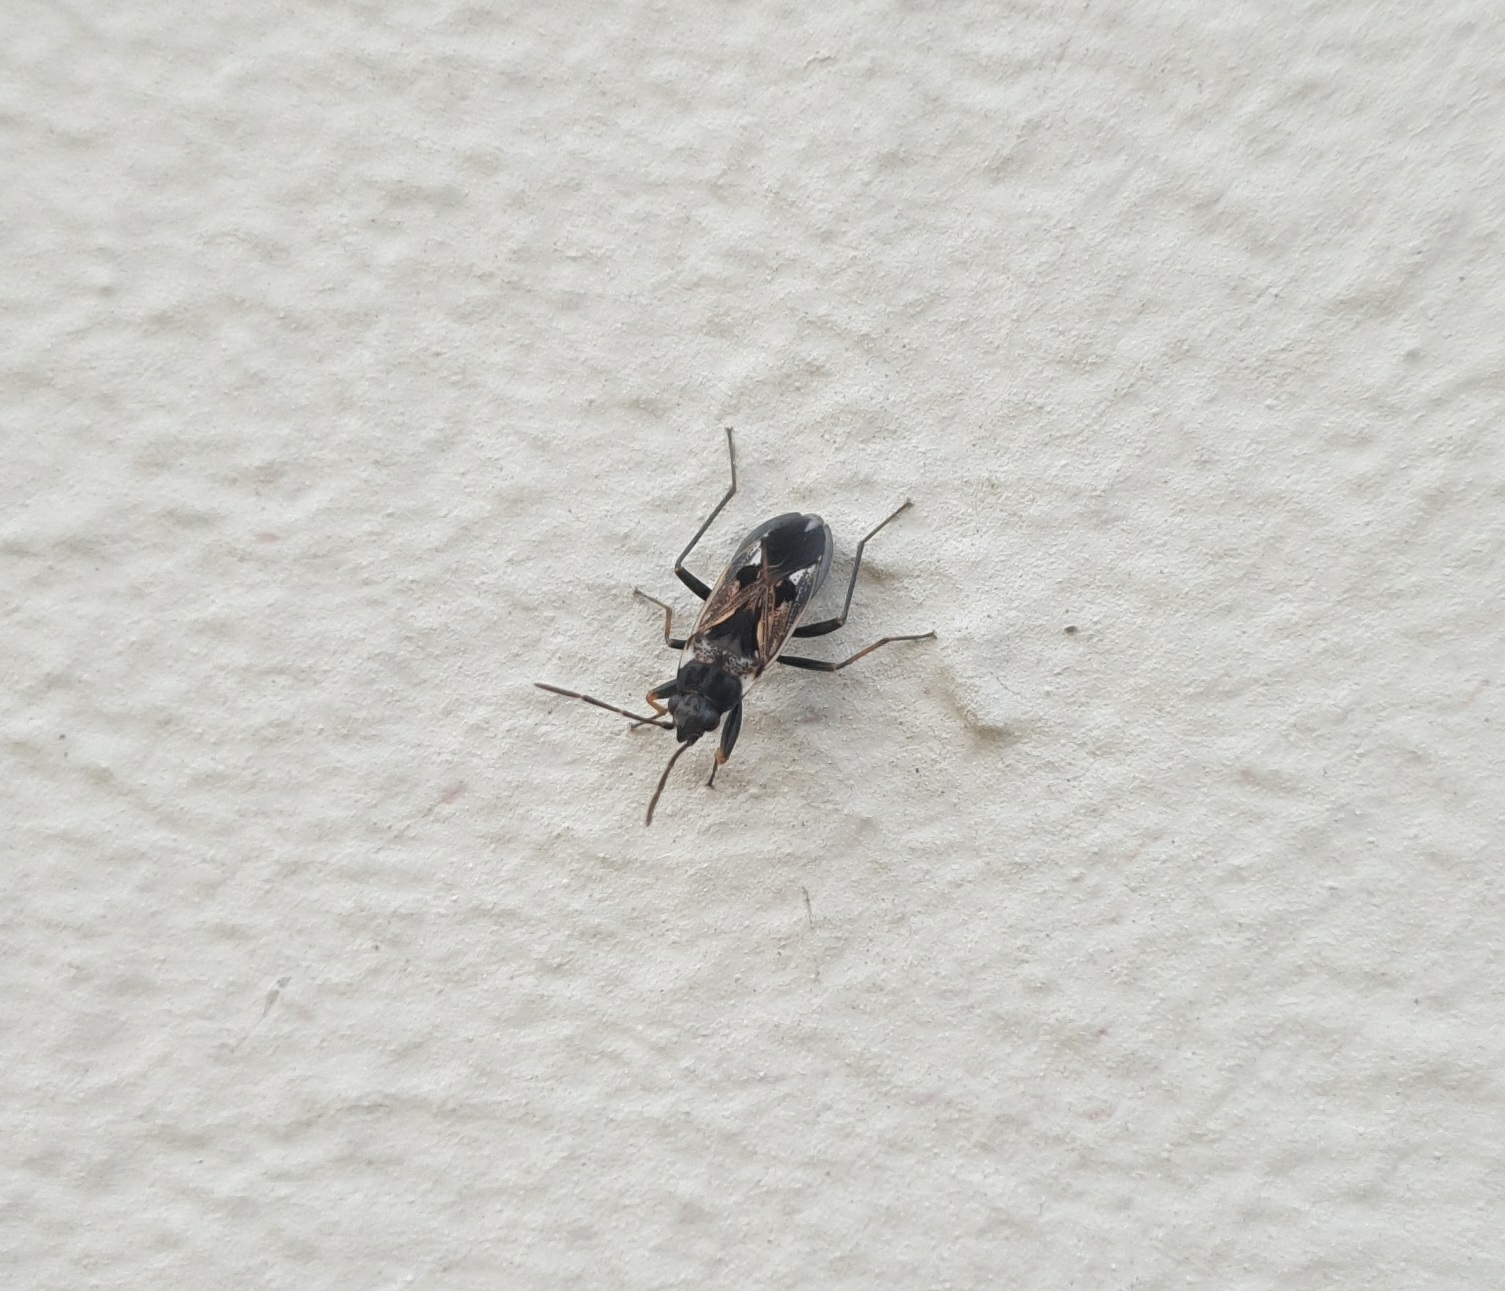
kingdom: Animalia
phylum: Arthropoda
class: Insecta
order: Hemiptera
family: Rhyparochromidae
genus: Rhyparochromus
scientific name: Rhyparochromus vulgaris
